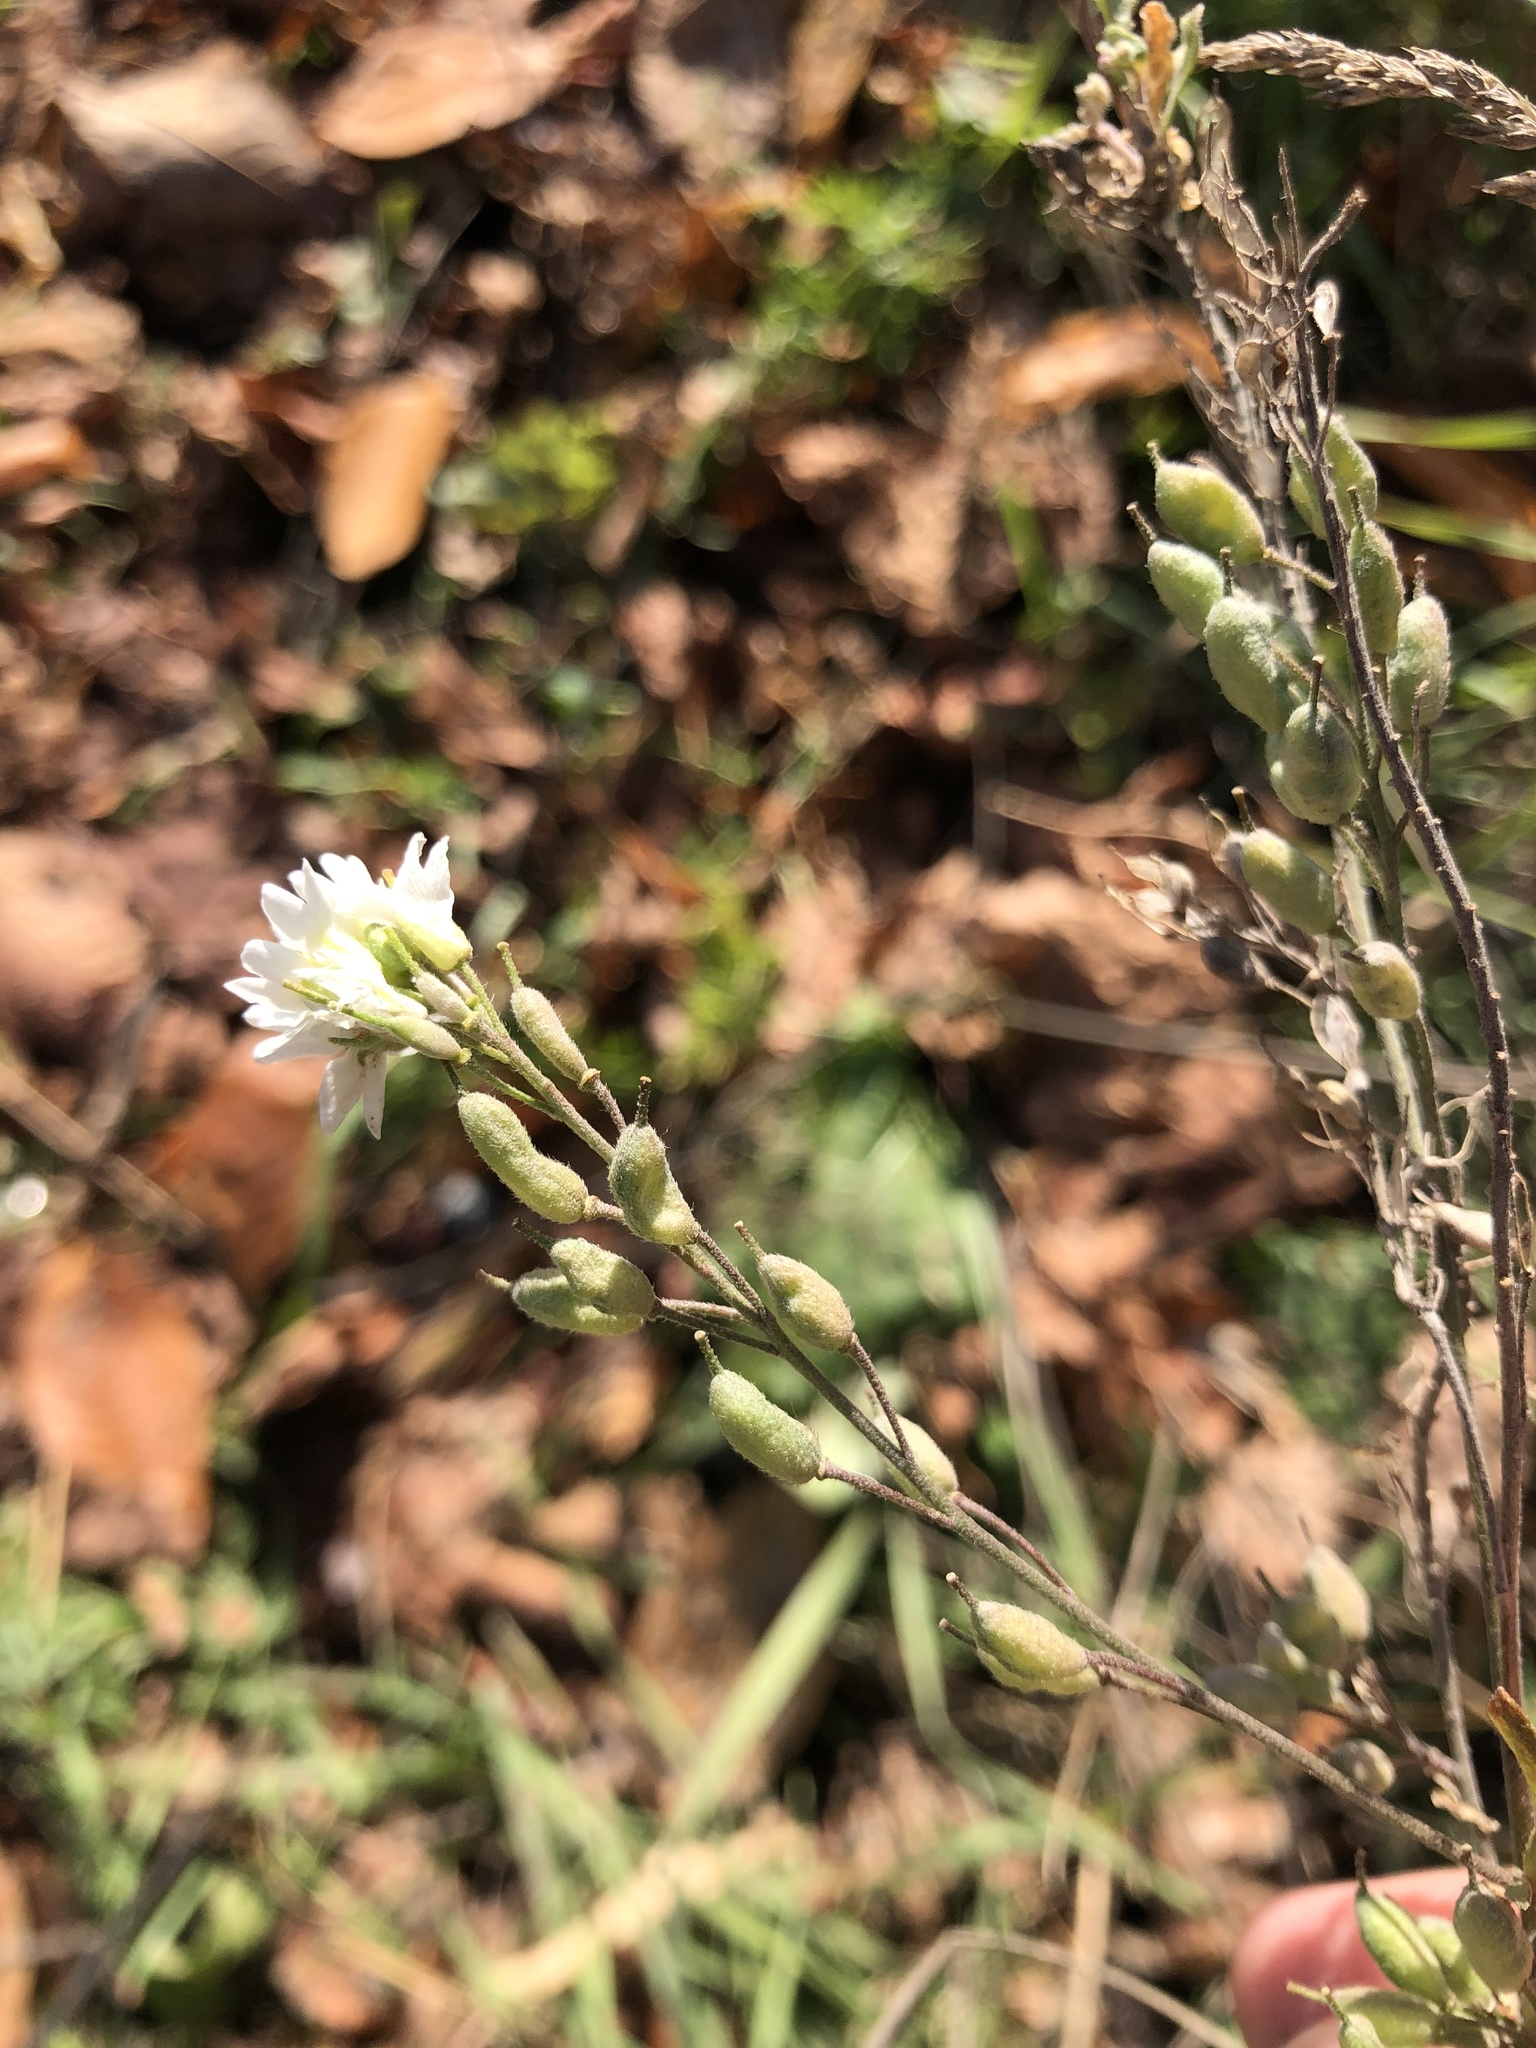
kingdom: Plantae
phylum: Tracheophyta
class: Magnoliopsida
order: Brassicales
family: Brassicaceae
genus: Berteroa
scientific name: Berteroa incana
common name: Hoary alison
